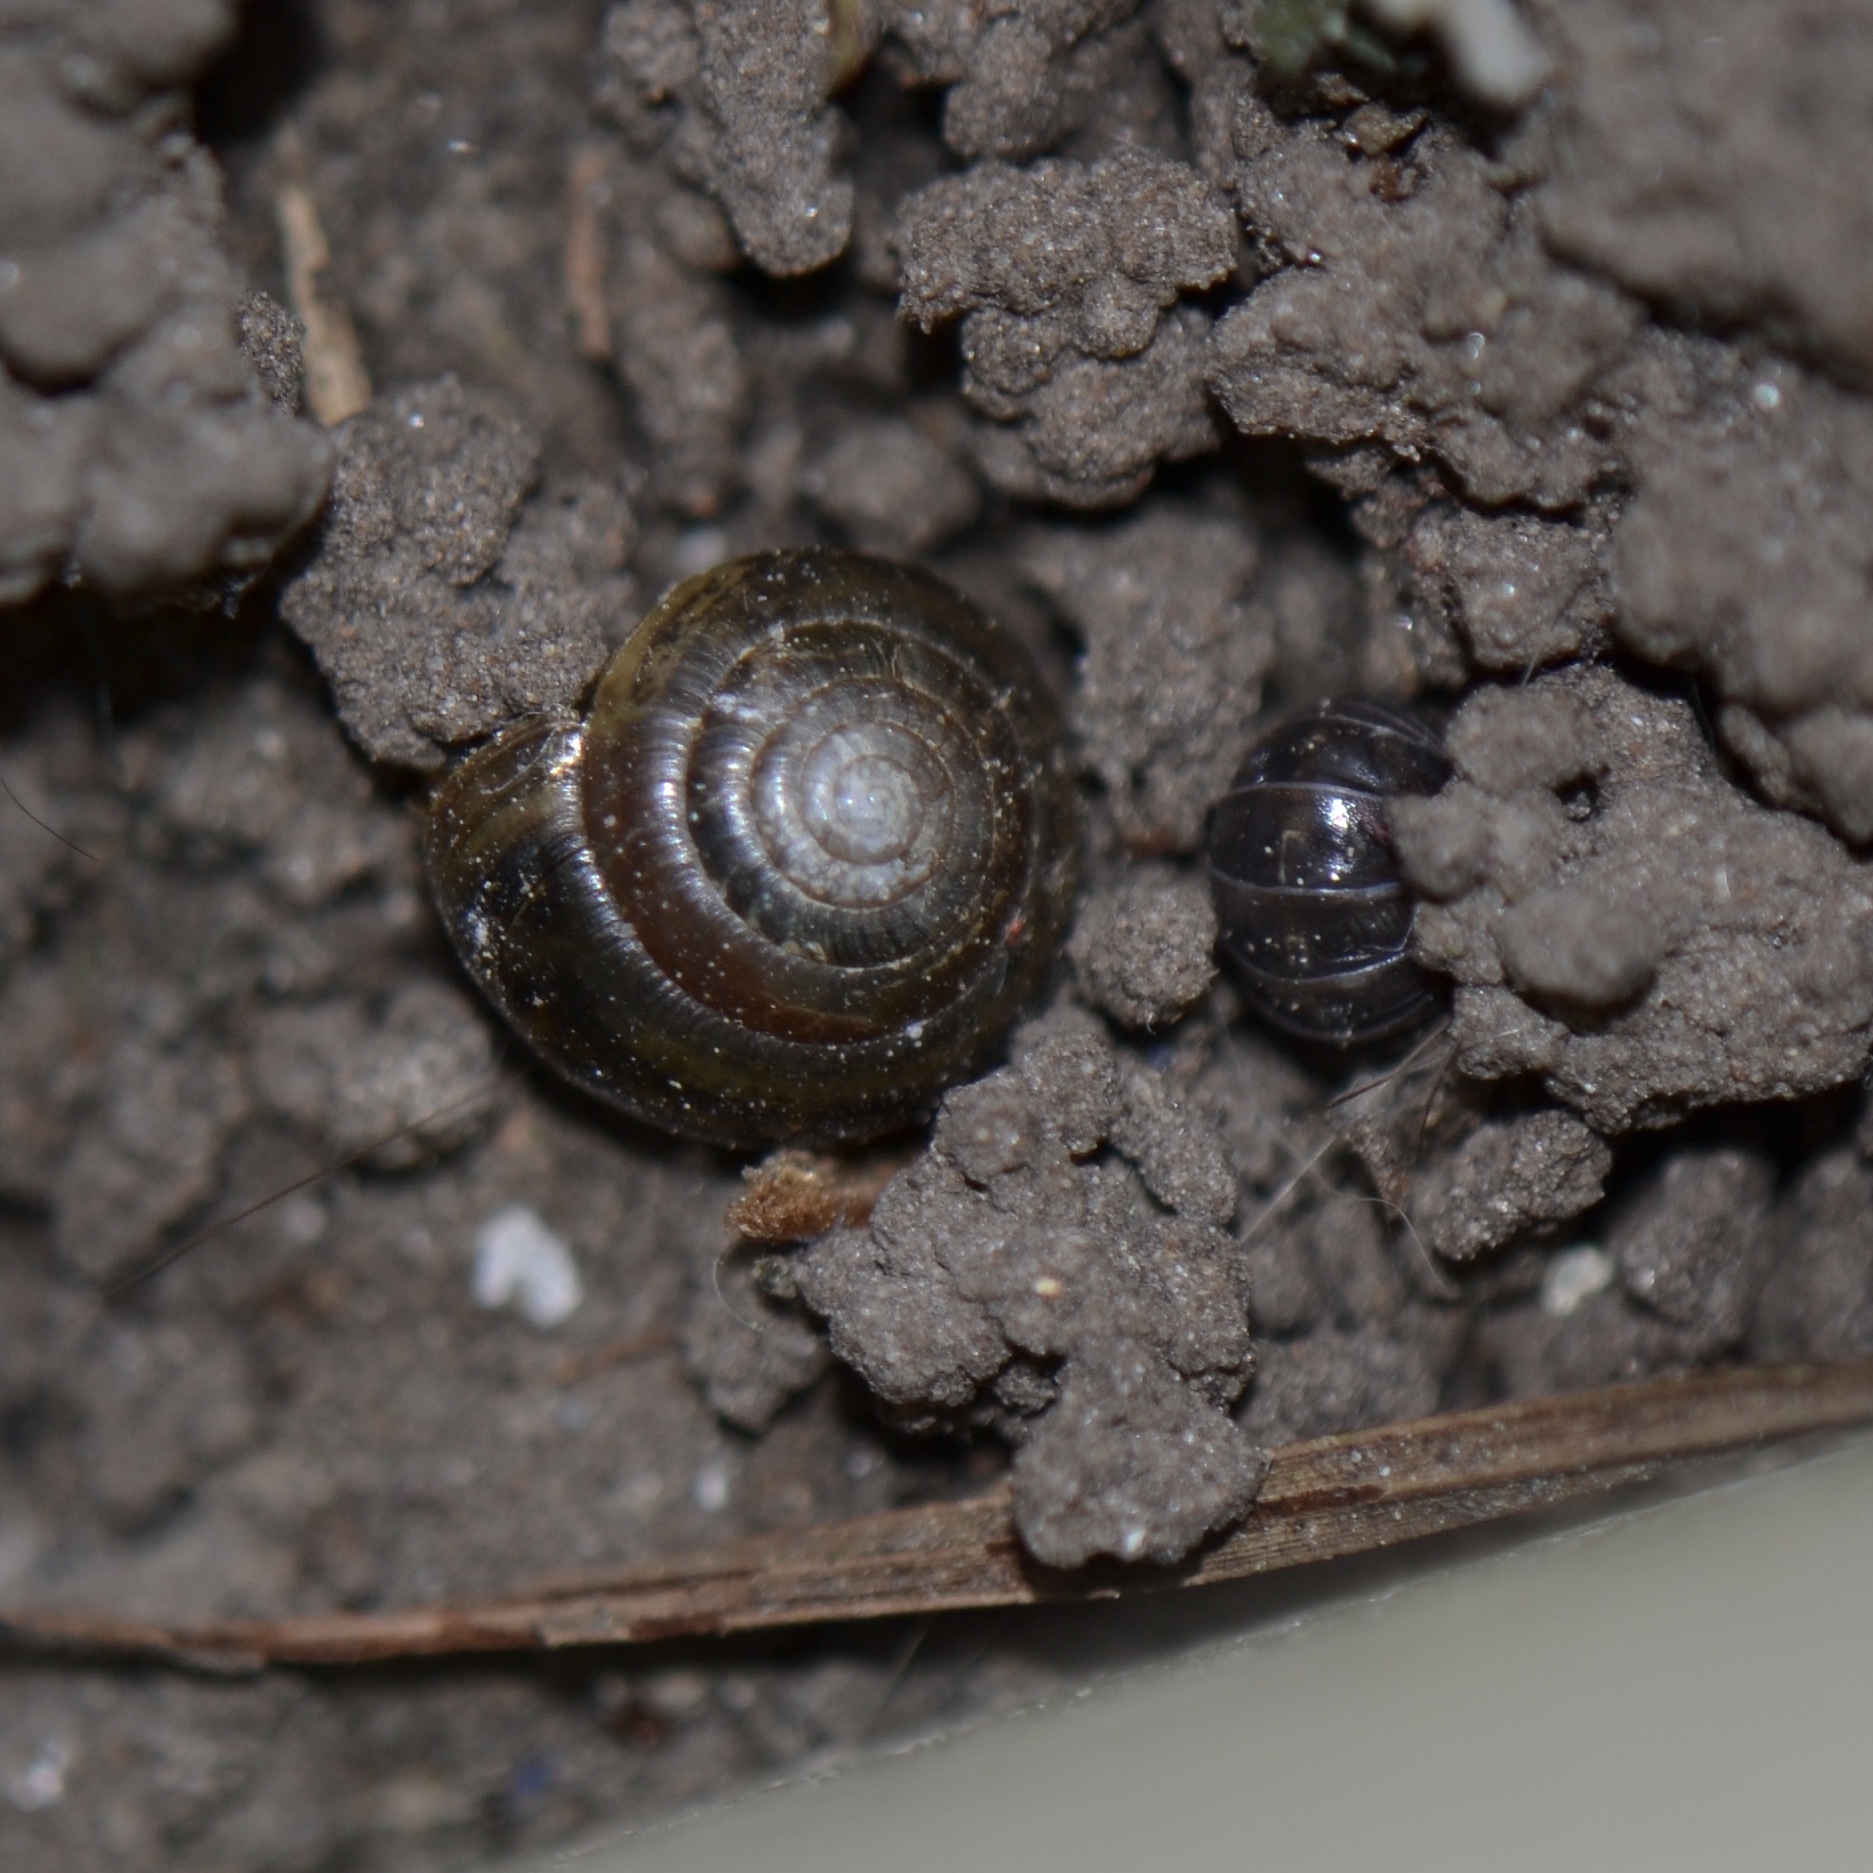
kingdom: Animalia
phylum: Arthropoda
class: Malacostraca
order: Isopoda
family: Armadillidiidae
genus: Armadillidium
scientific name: Armadillidium vulgare
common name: Common pill woodlouse
